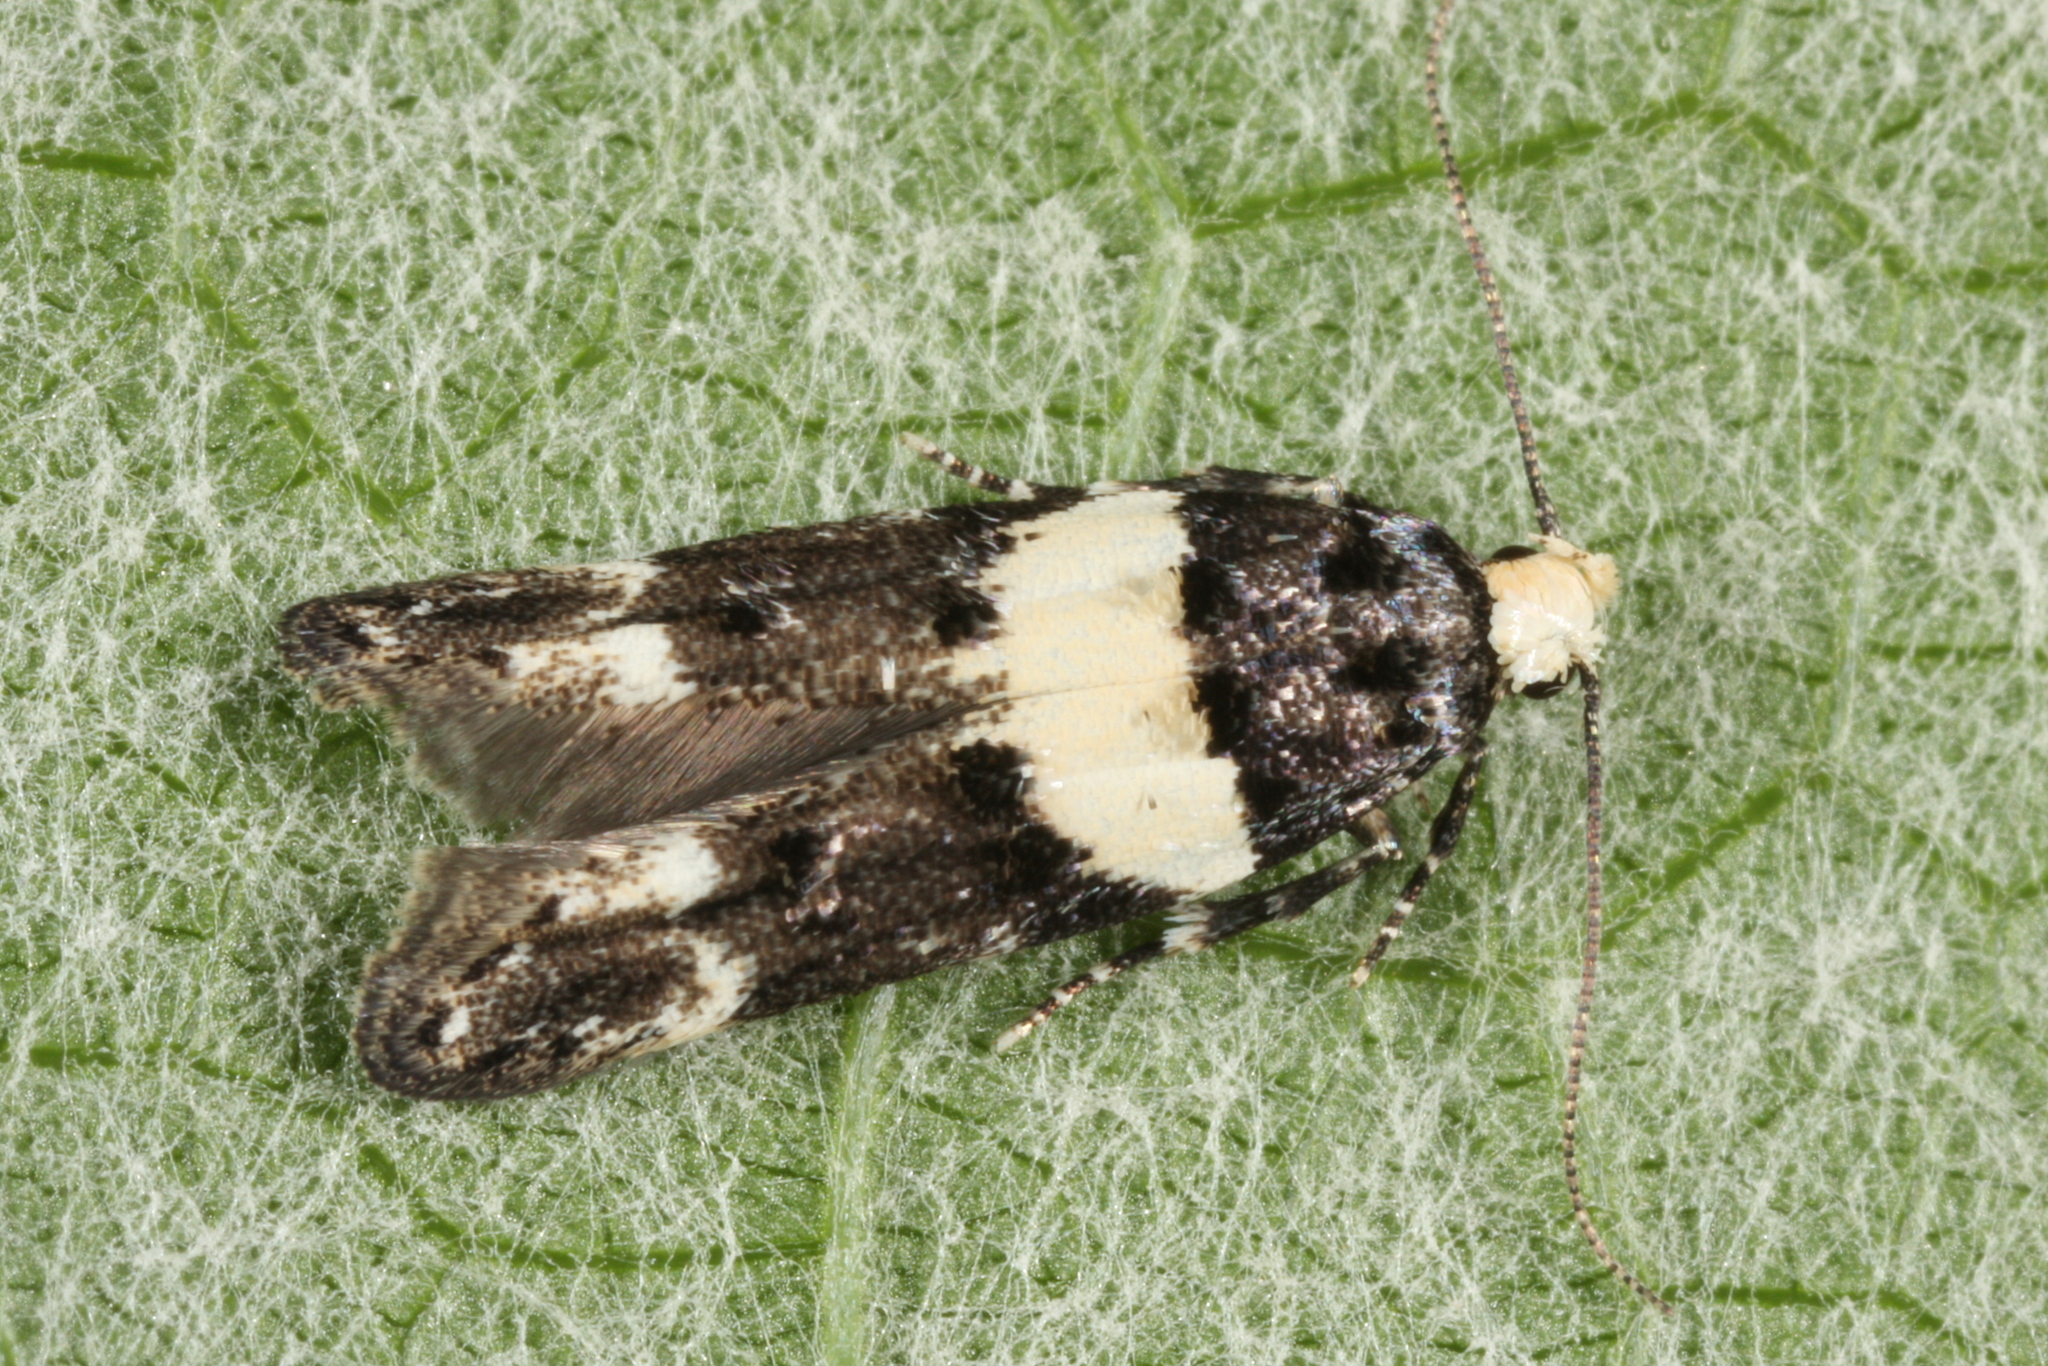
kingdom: Animalia
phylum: Arthropoda
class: Insecta
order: Lepidoptera
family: Gelechiidae
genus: Recurvaria
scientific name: Recurvaria leucatella
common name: White-barred groundling
